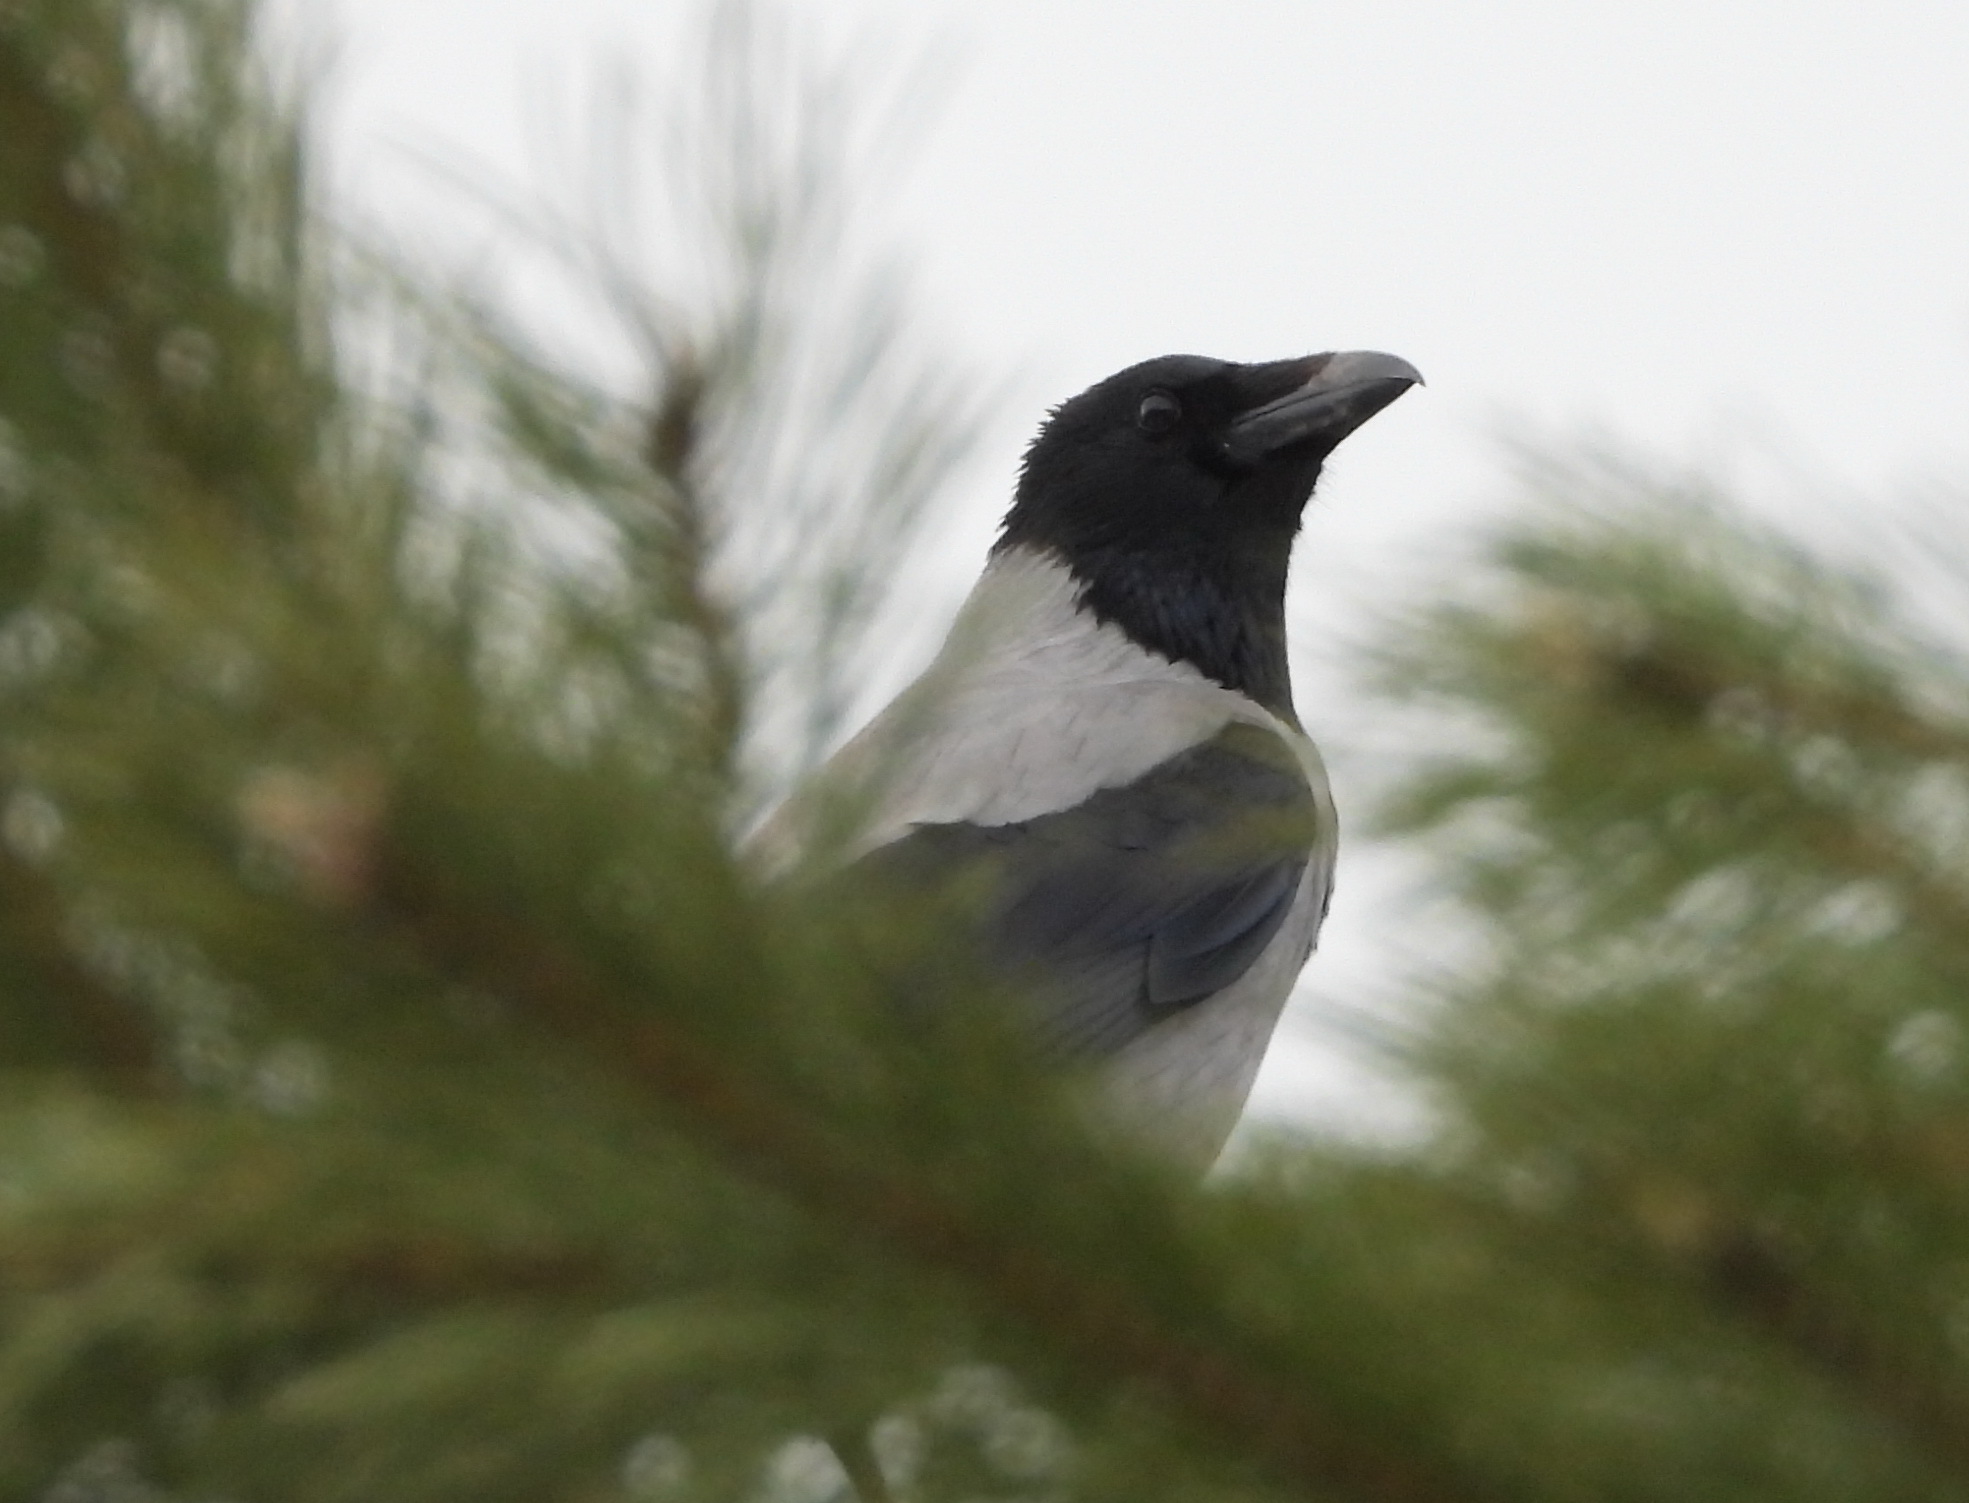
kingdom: Animalia
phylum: Chordata
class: Aves
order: Passeriformes
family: Corvidae
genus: Corvus
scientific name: Corvus cornix
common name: Hooded crow
